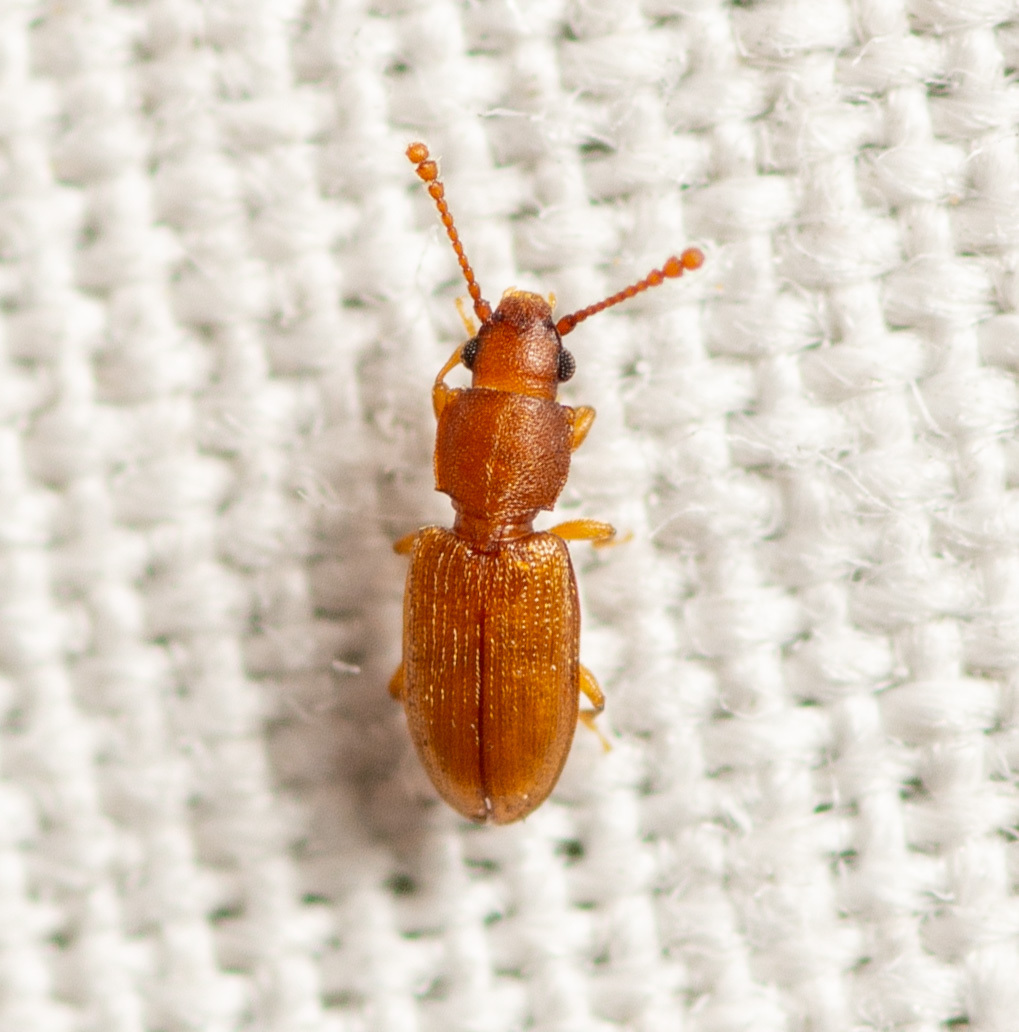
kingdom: Animalia
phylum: Arthropoda
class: Insecta
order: Coleoptera
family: Silvanidae
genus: Ahasverus
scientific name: Ahasverus rectus
